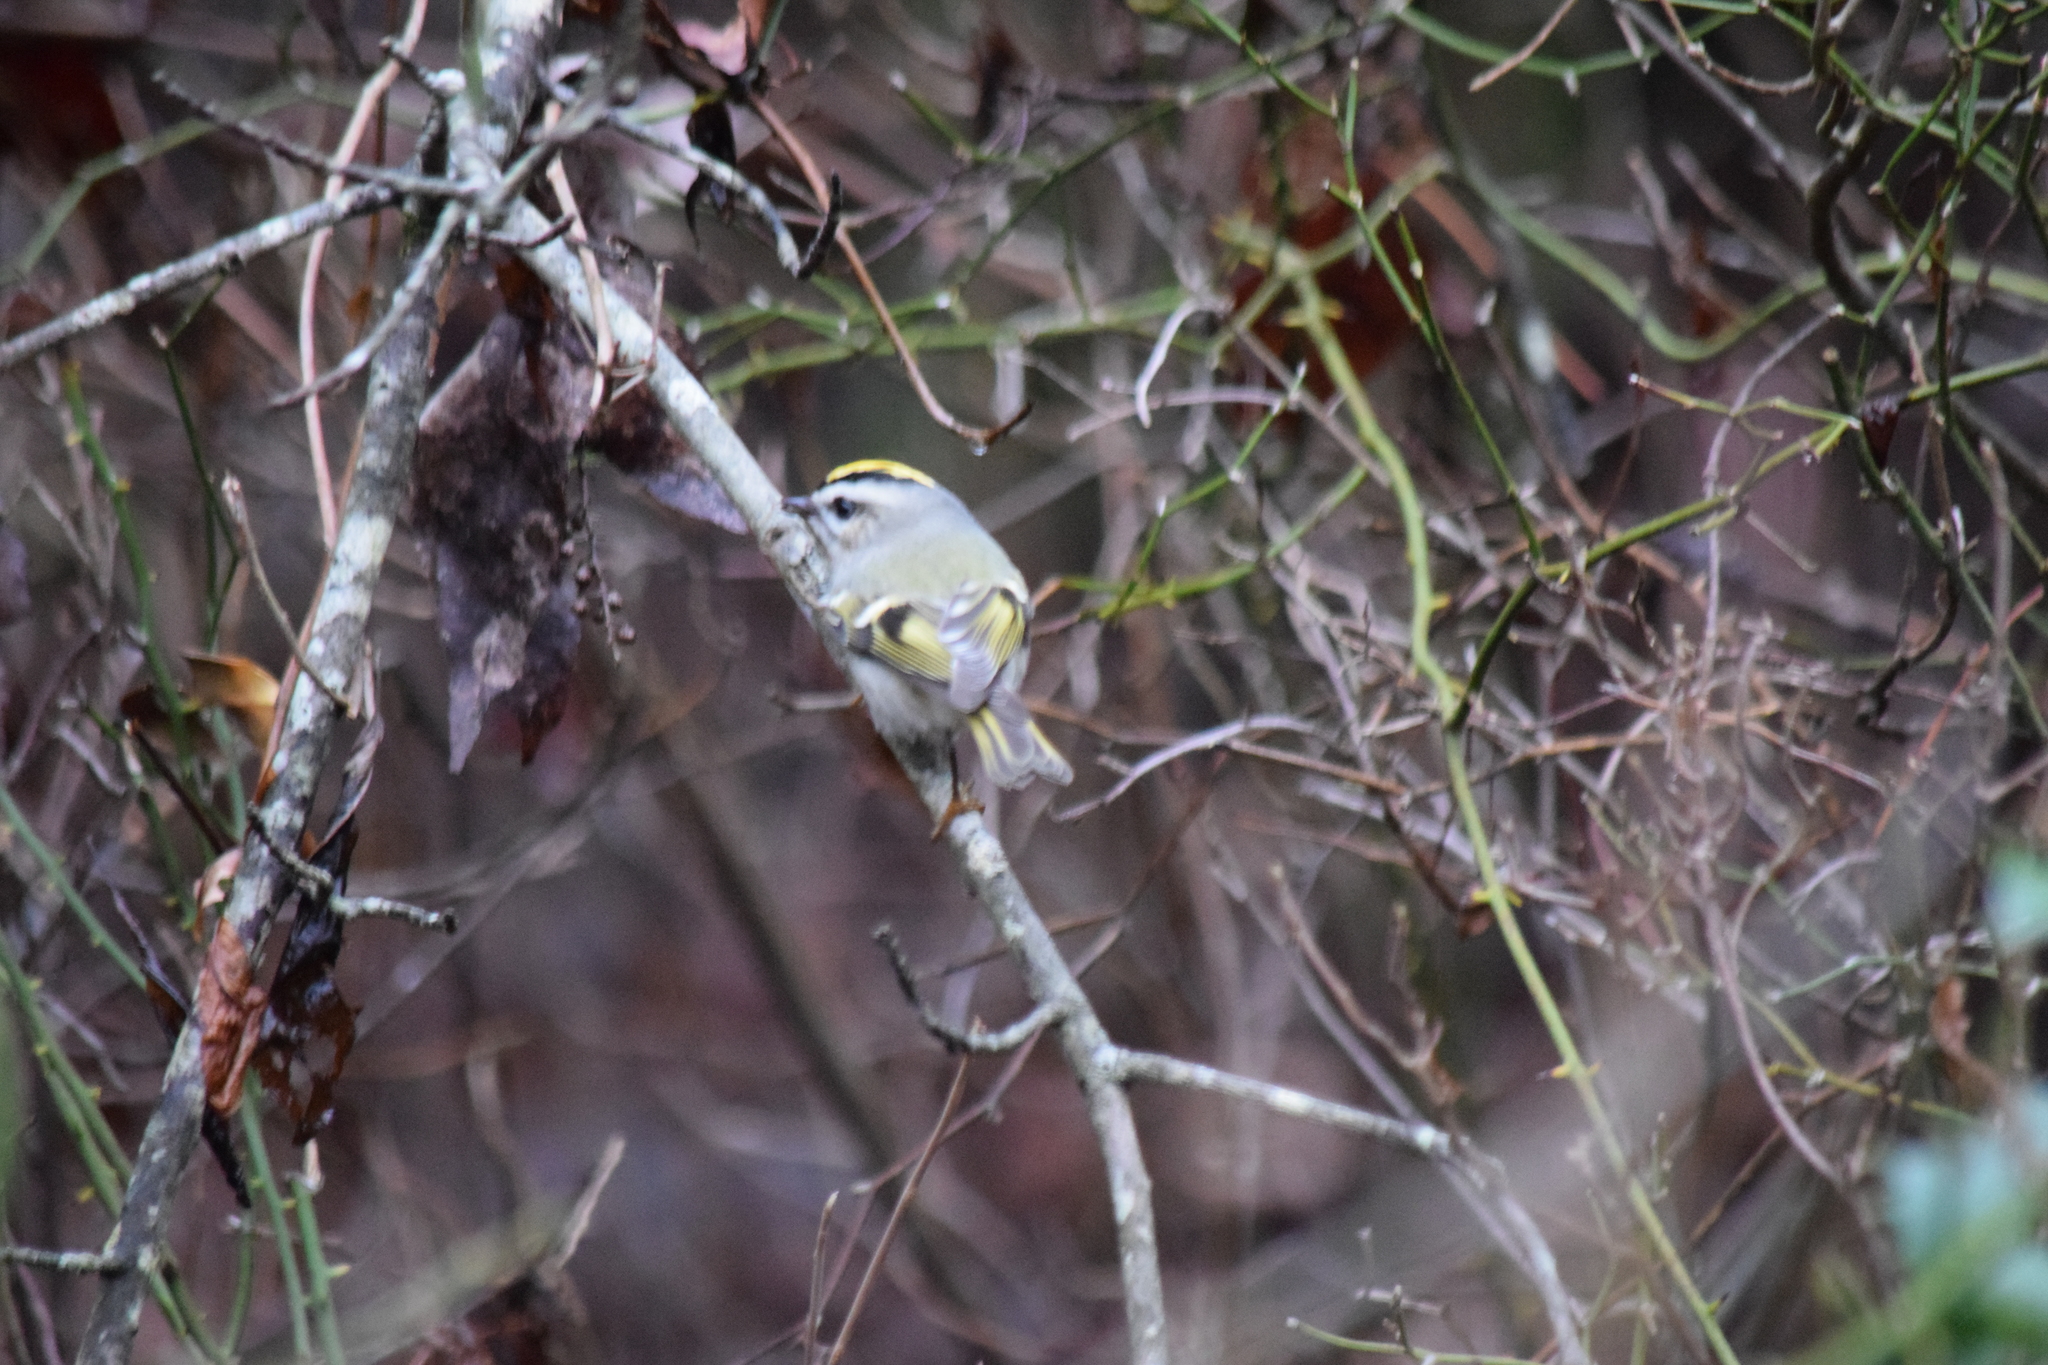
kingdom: Animalia
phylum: Chordata
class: Aves
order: Passeriformes
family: Regulidae
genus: Regulus
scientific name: Regulus satrapa
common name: Golden-crowned kinglet
